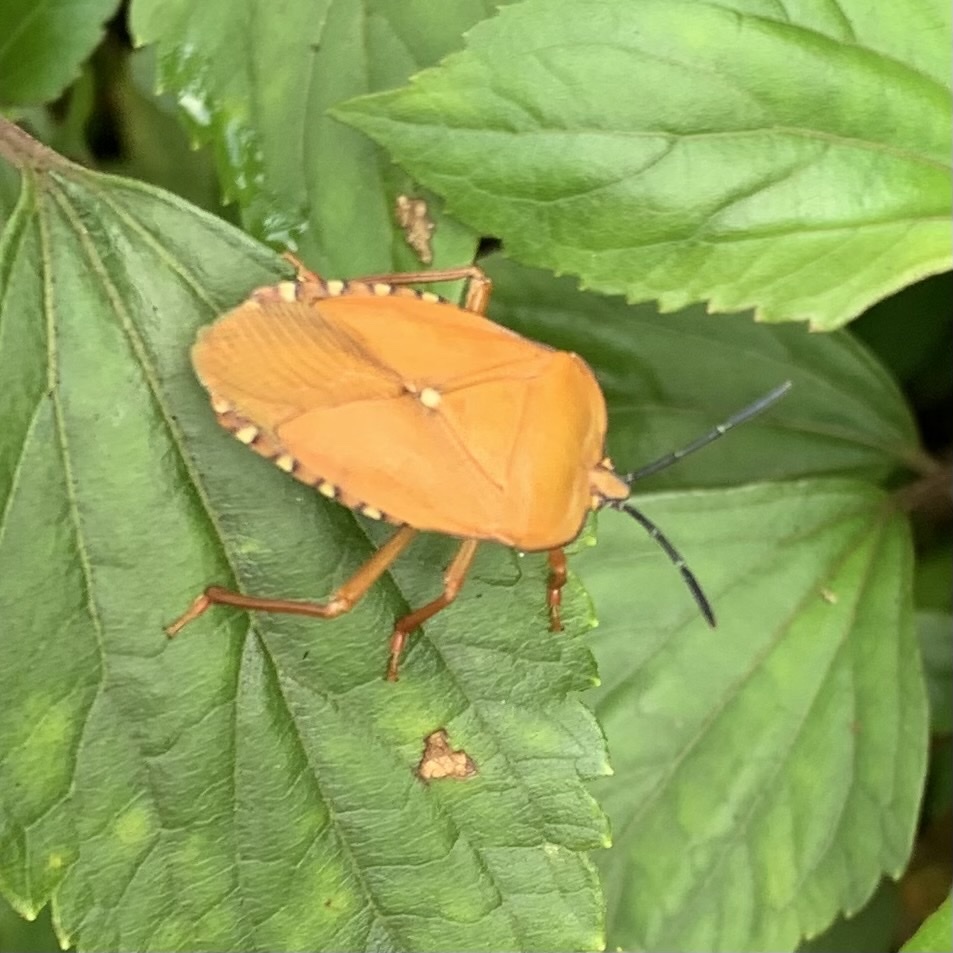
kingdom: Animalia
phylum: Arthropoda
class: Insecta
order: Hemiptera
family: Tessaratomidae
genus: Pycanum
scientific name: Pycanum ochraceum
